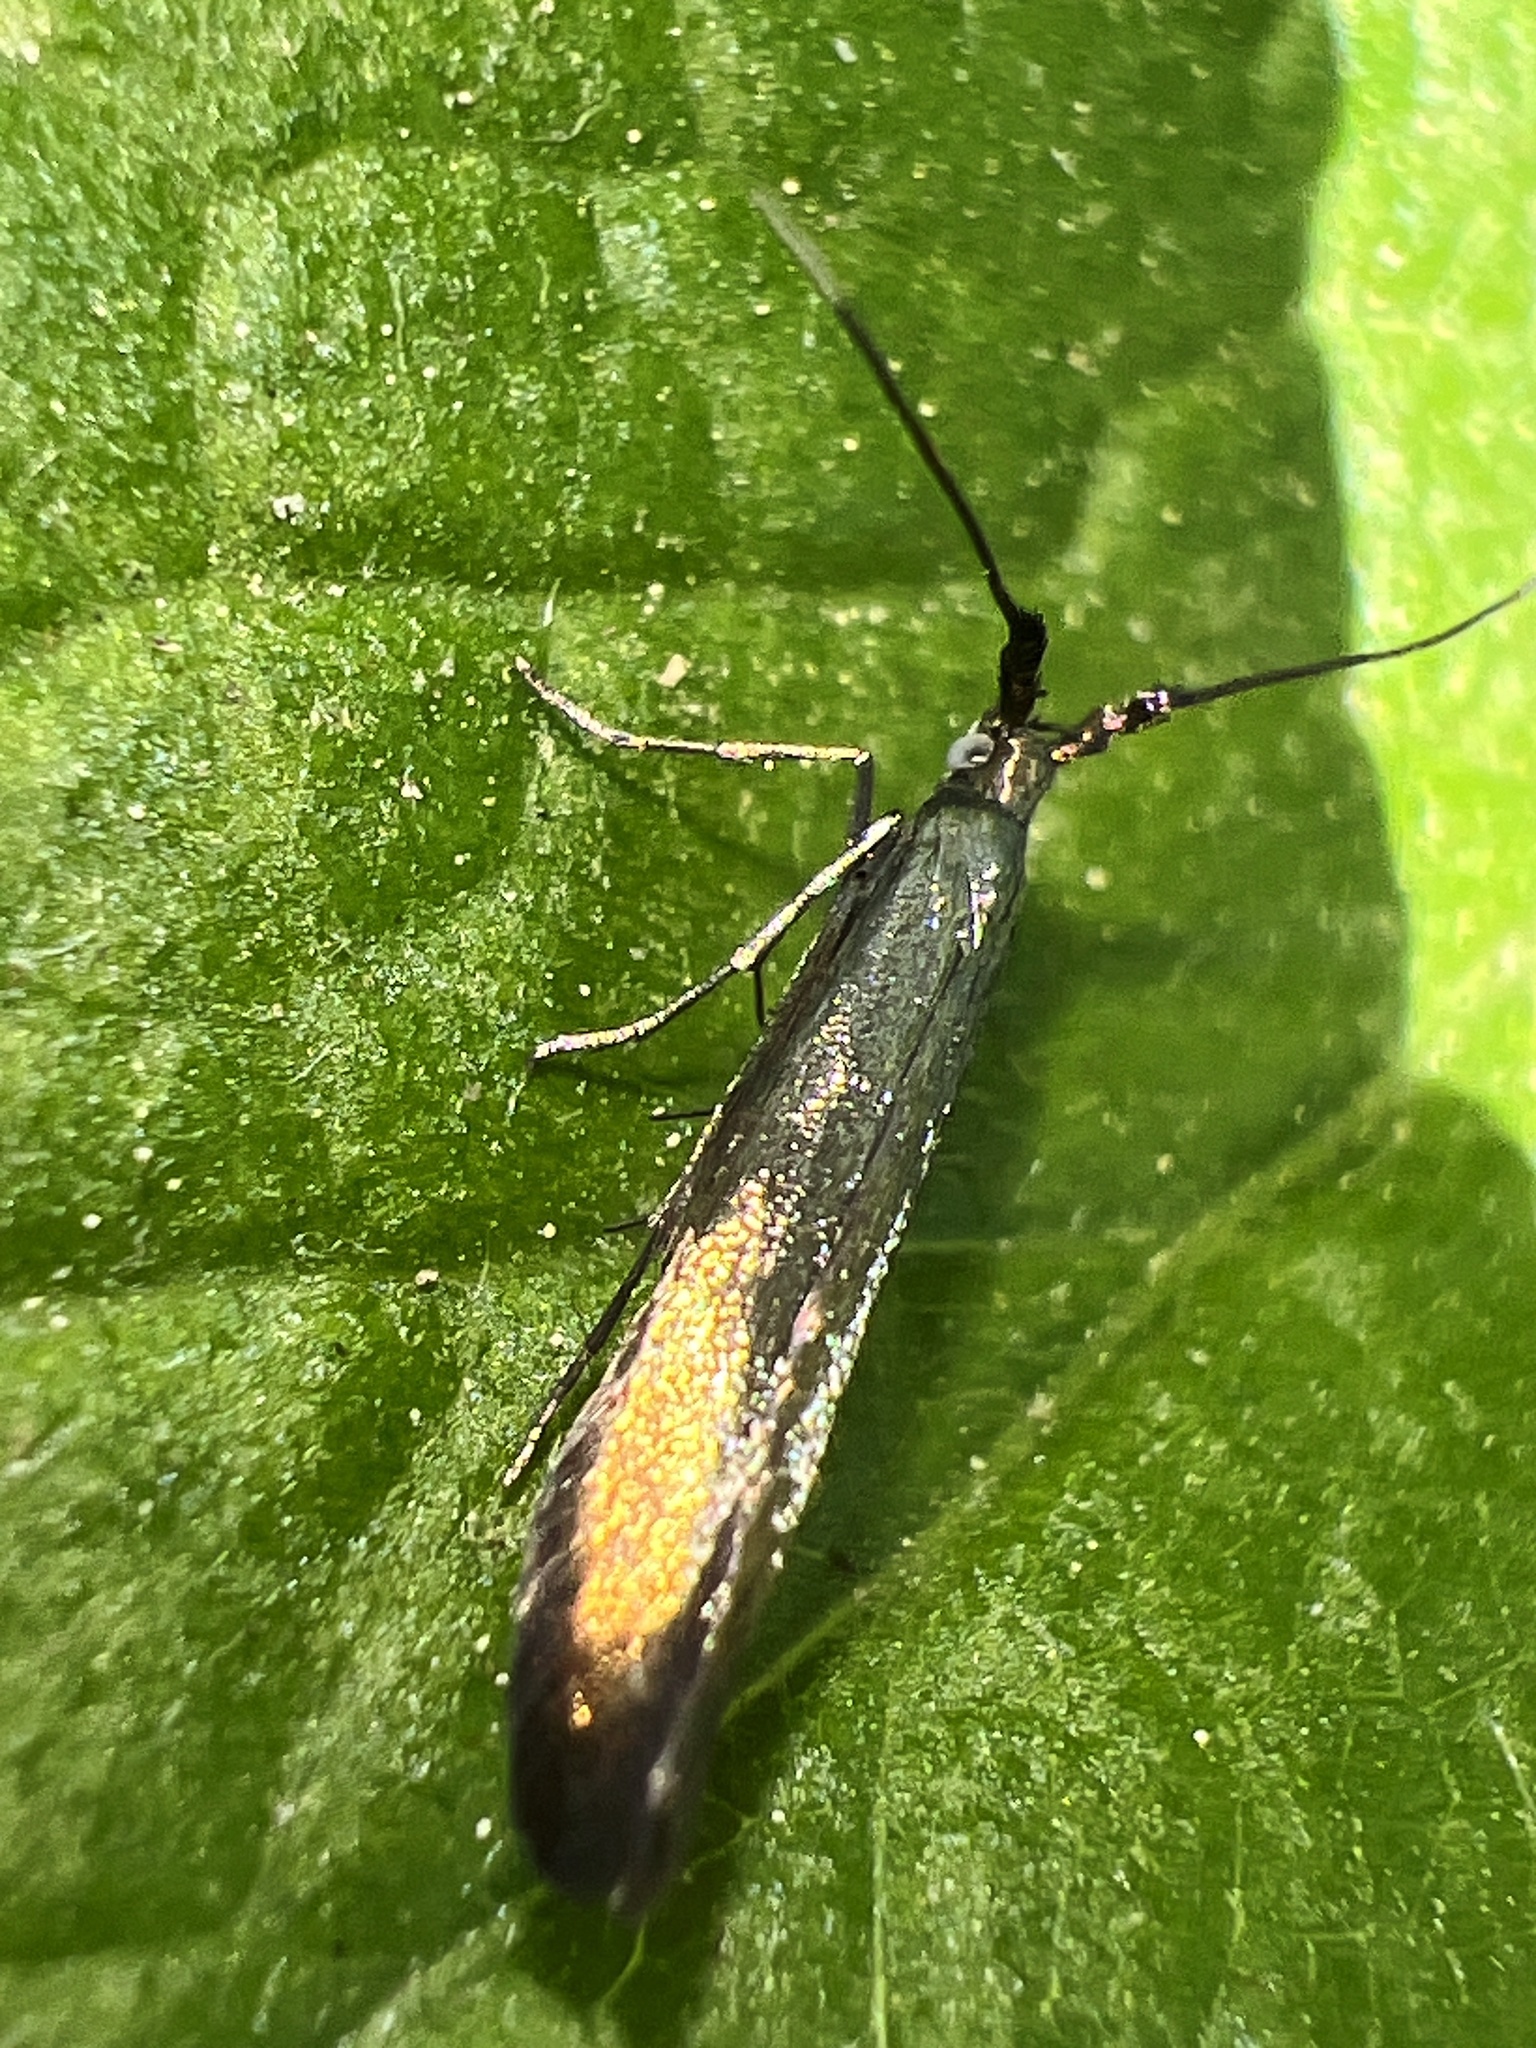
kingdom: Animalia
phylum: Arthropoda
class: Insecta
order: Lepidoptera
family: Coleophoridae
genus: Coleophora
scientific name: Coleophora deauratella
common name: Red-clover case-bearer
